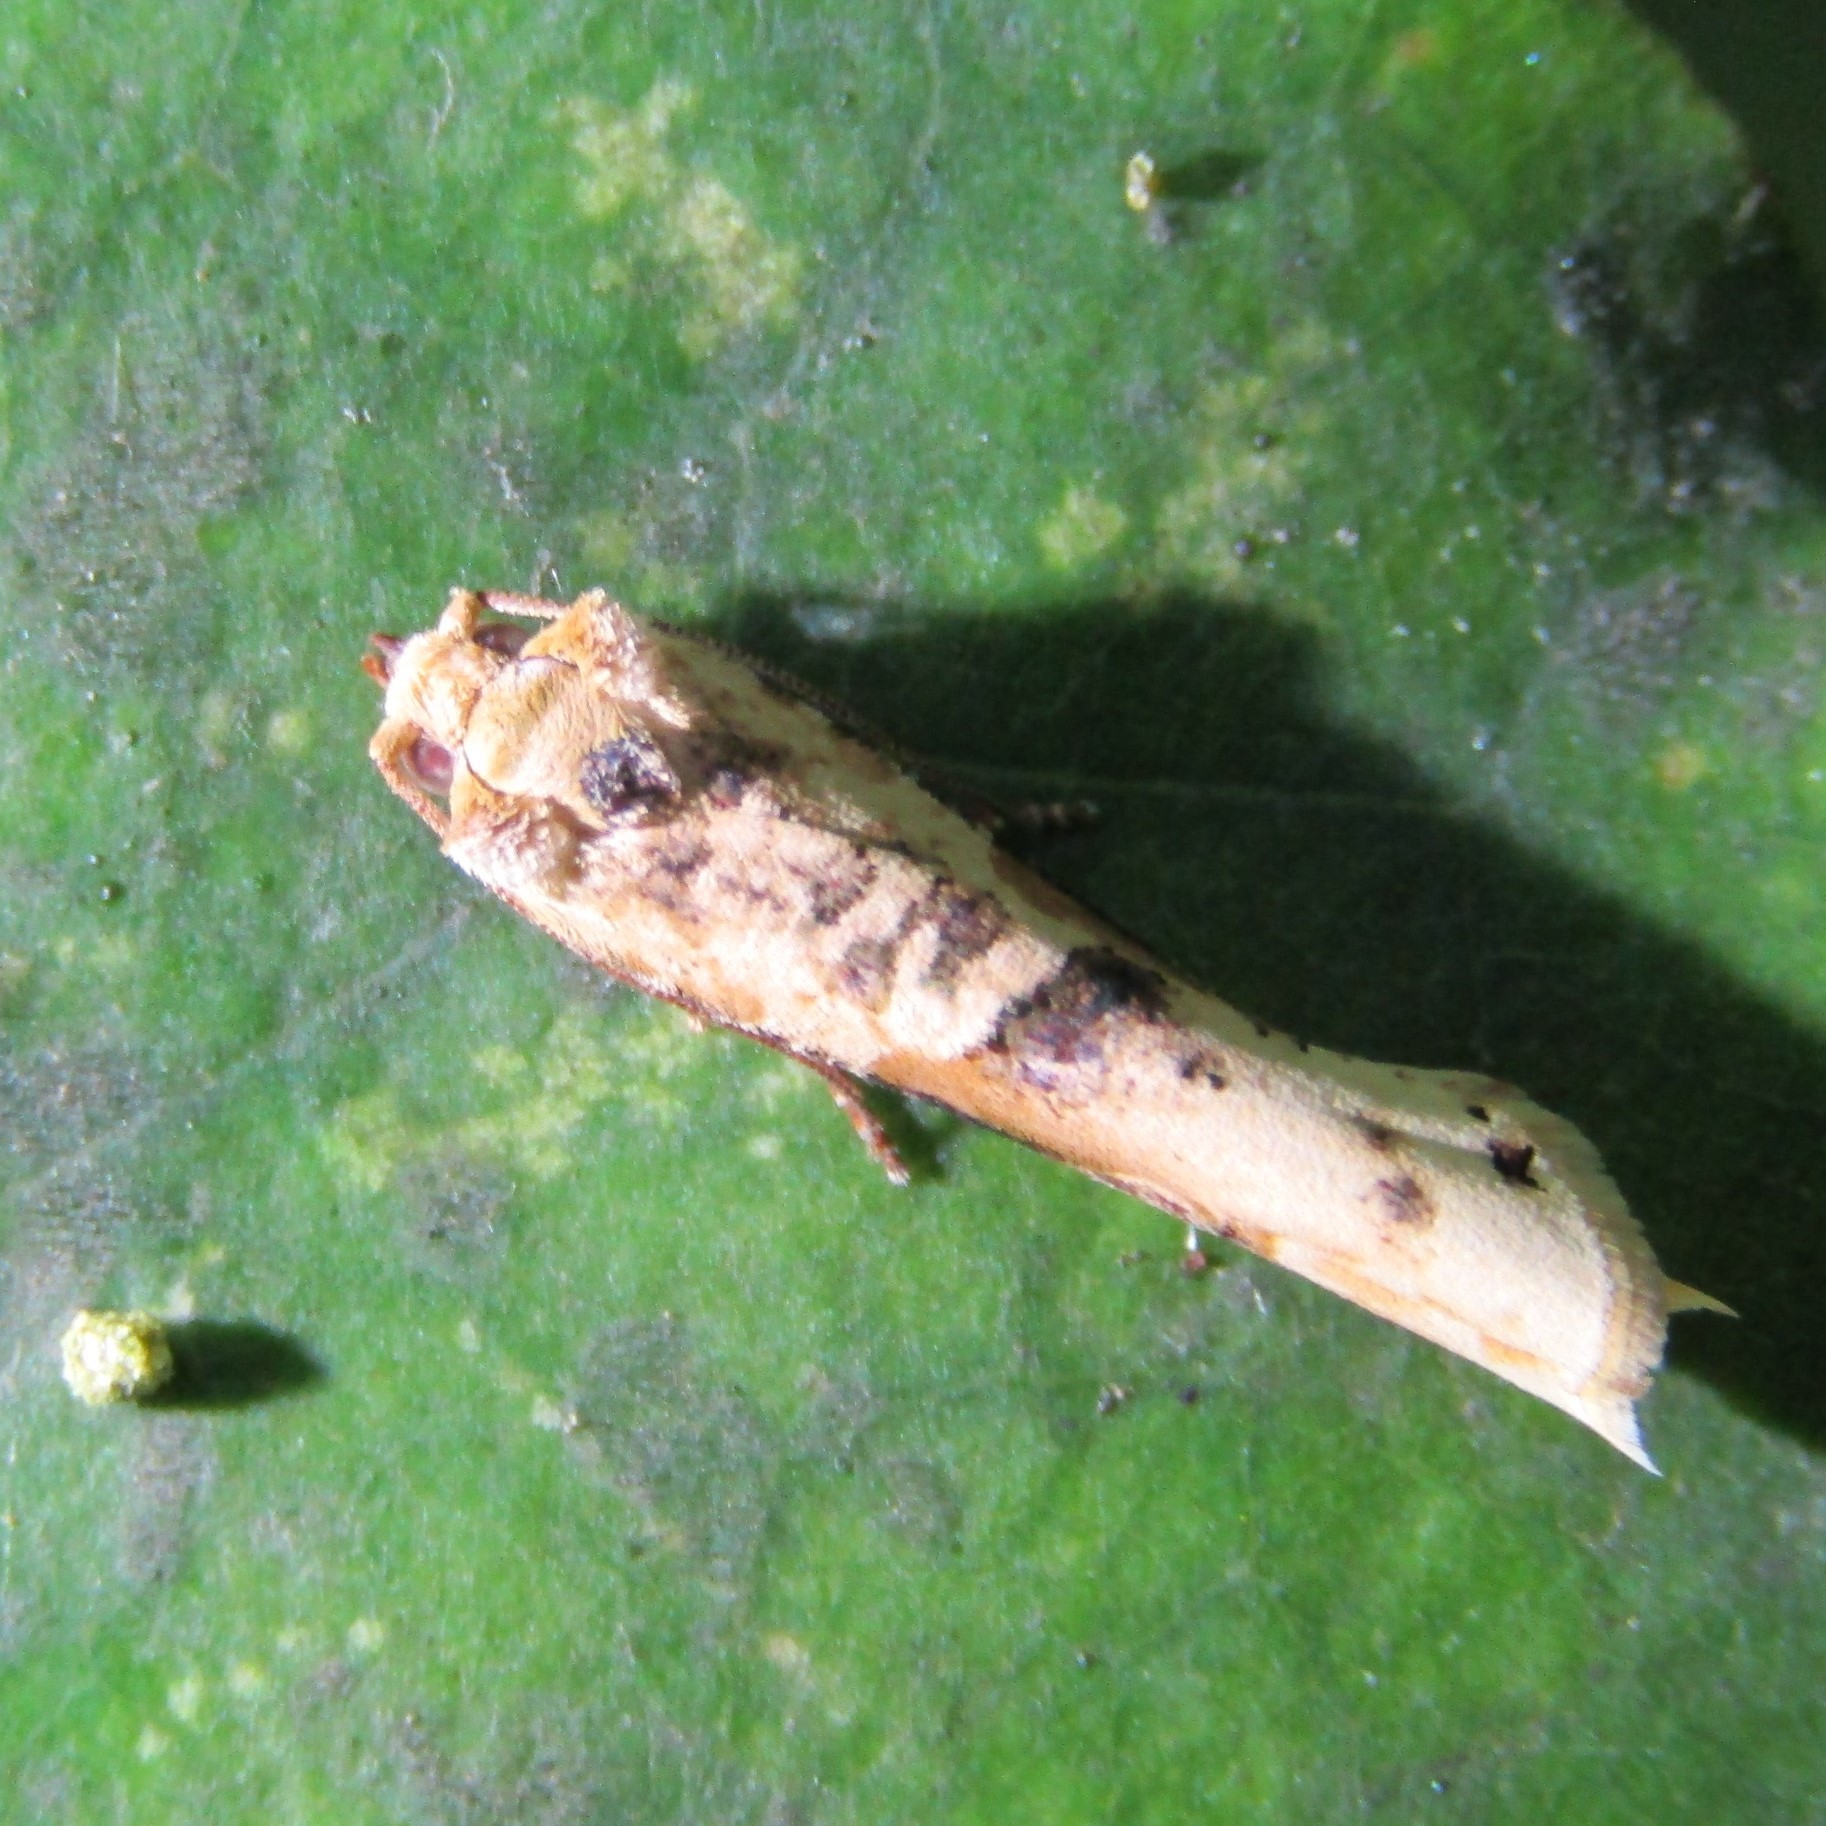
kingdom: Animalia
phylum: Arthropoda
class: Insecta
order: Lepidoptera
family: Tortricidae
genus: Epalxiphora
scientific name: Epalxiphora axenana
